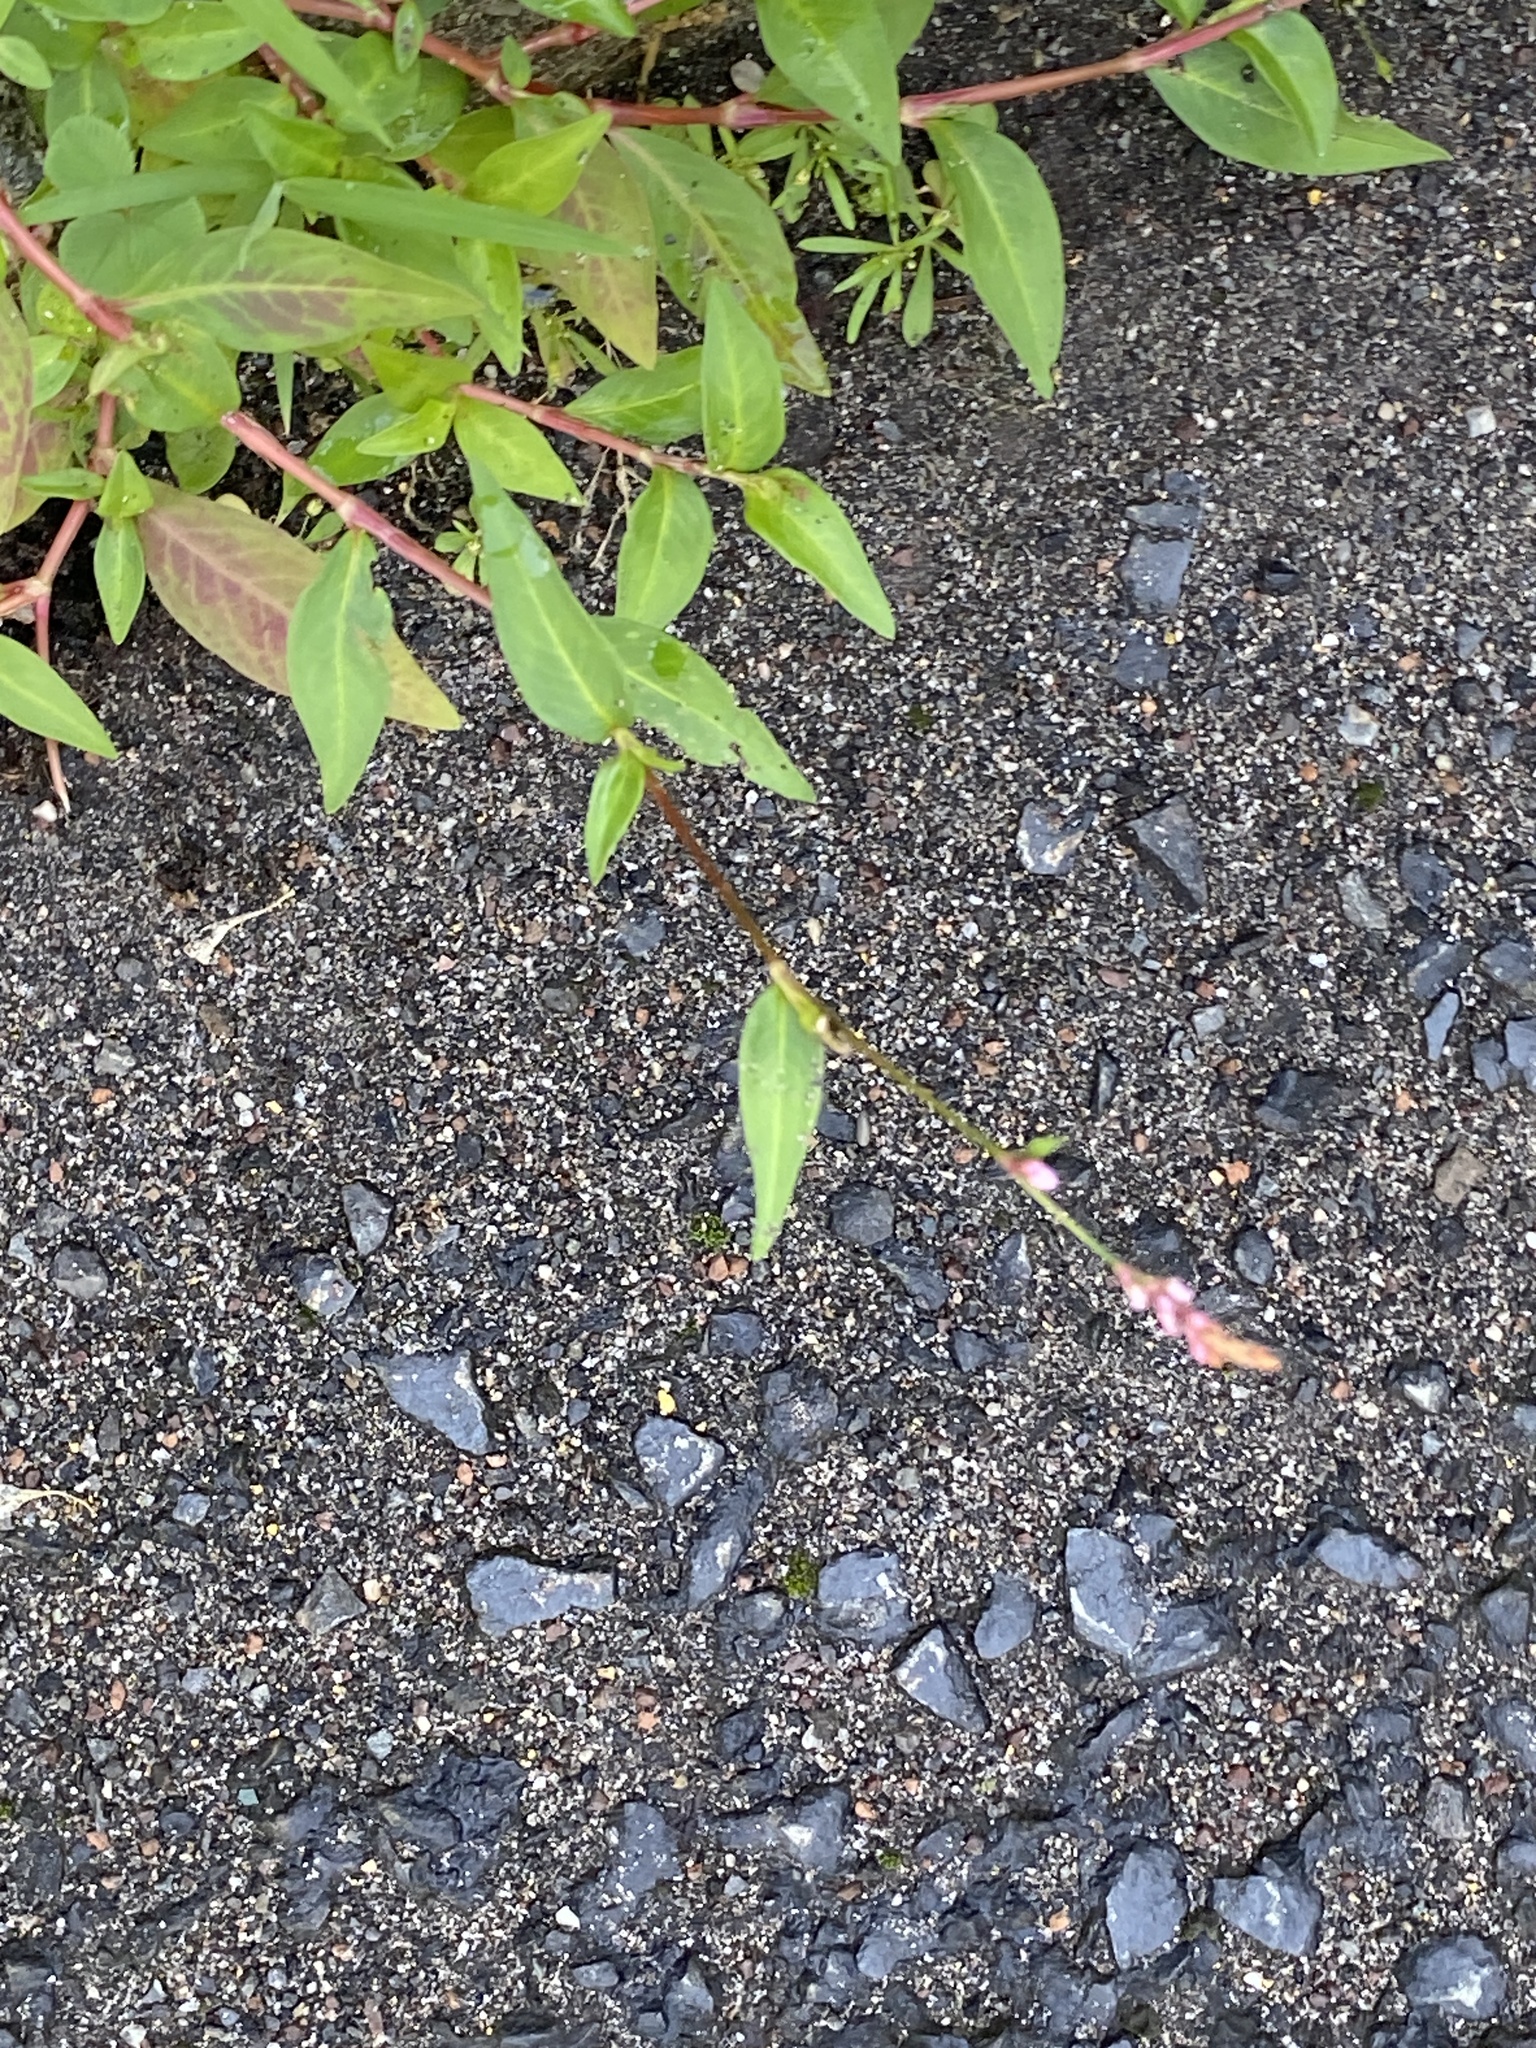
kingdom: Plantae
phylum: Tracheophyta
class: Magnoliopsida
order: Caryophyllales
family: Polygonaceae
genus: Persicaria
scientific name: Persicaria longiseta
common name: Bristly lady's-thumb
